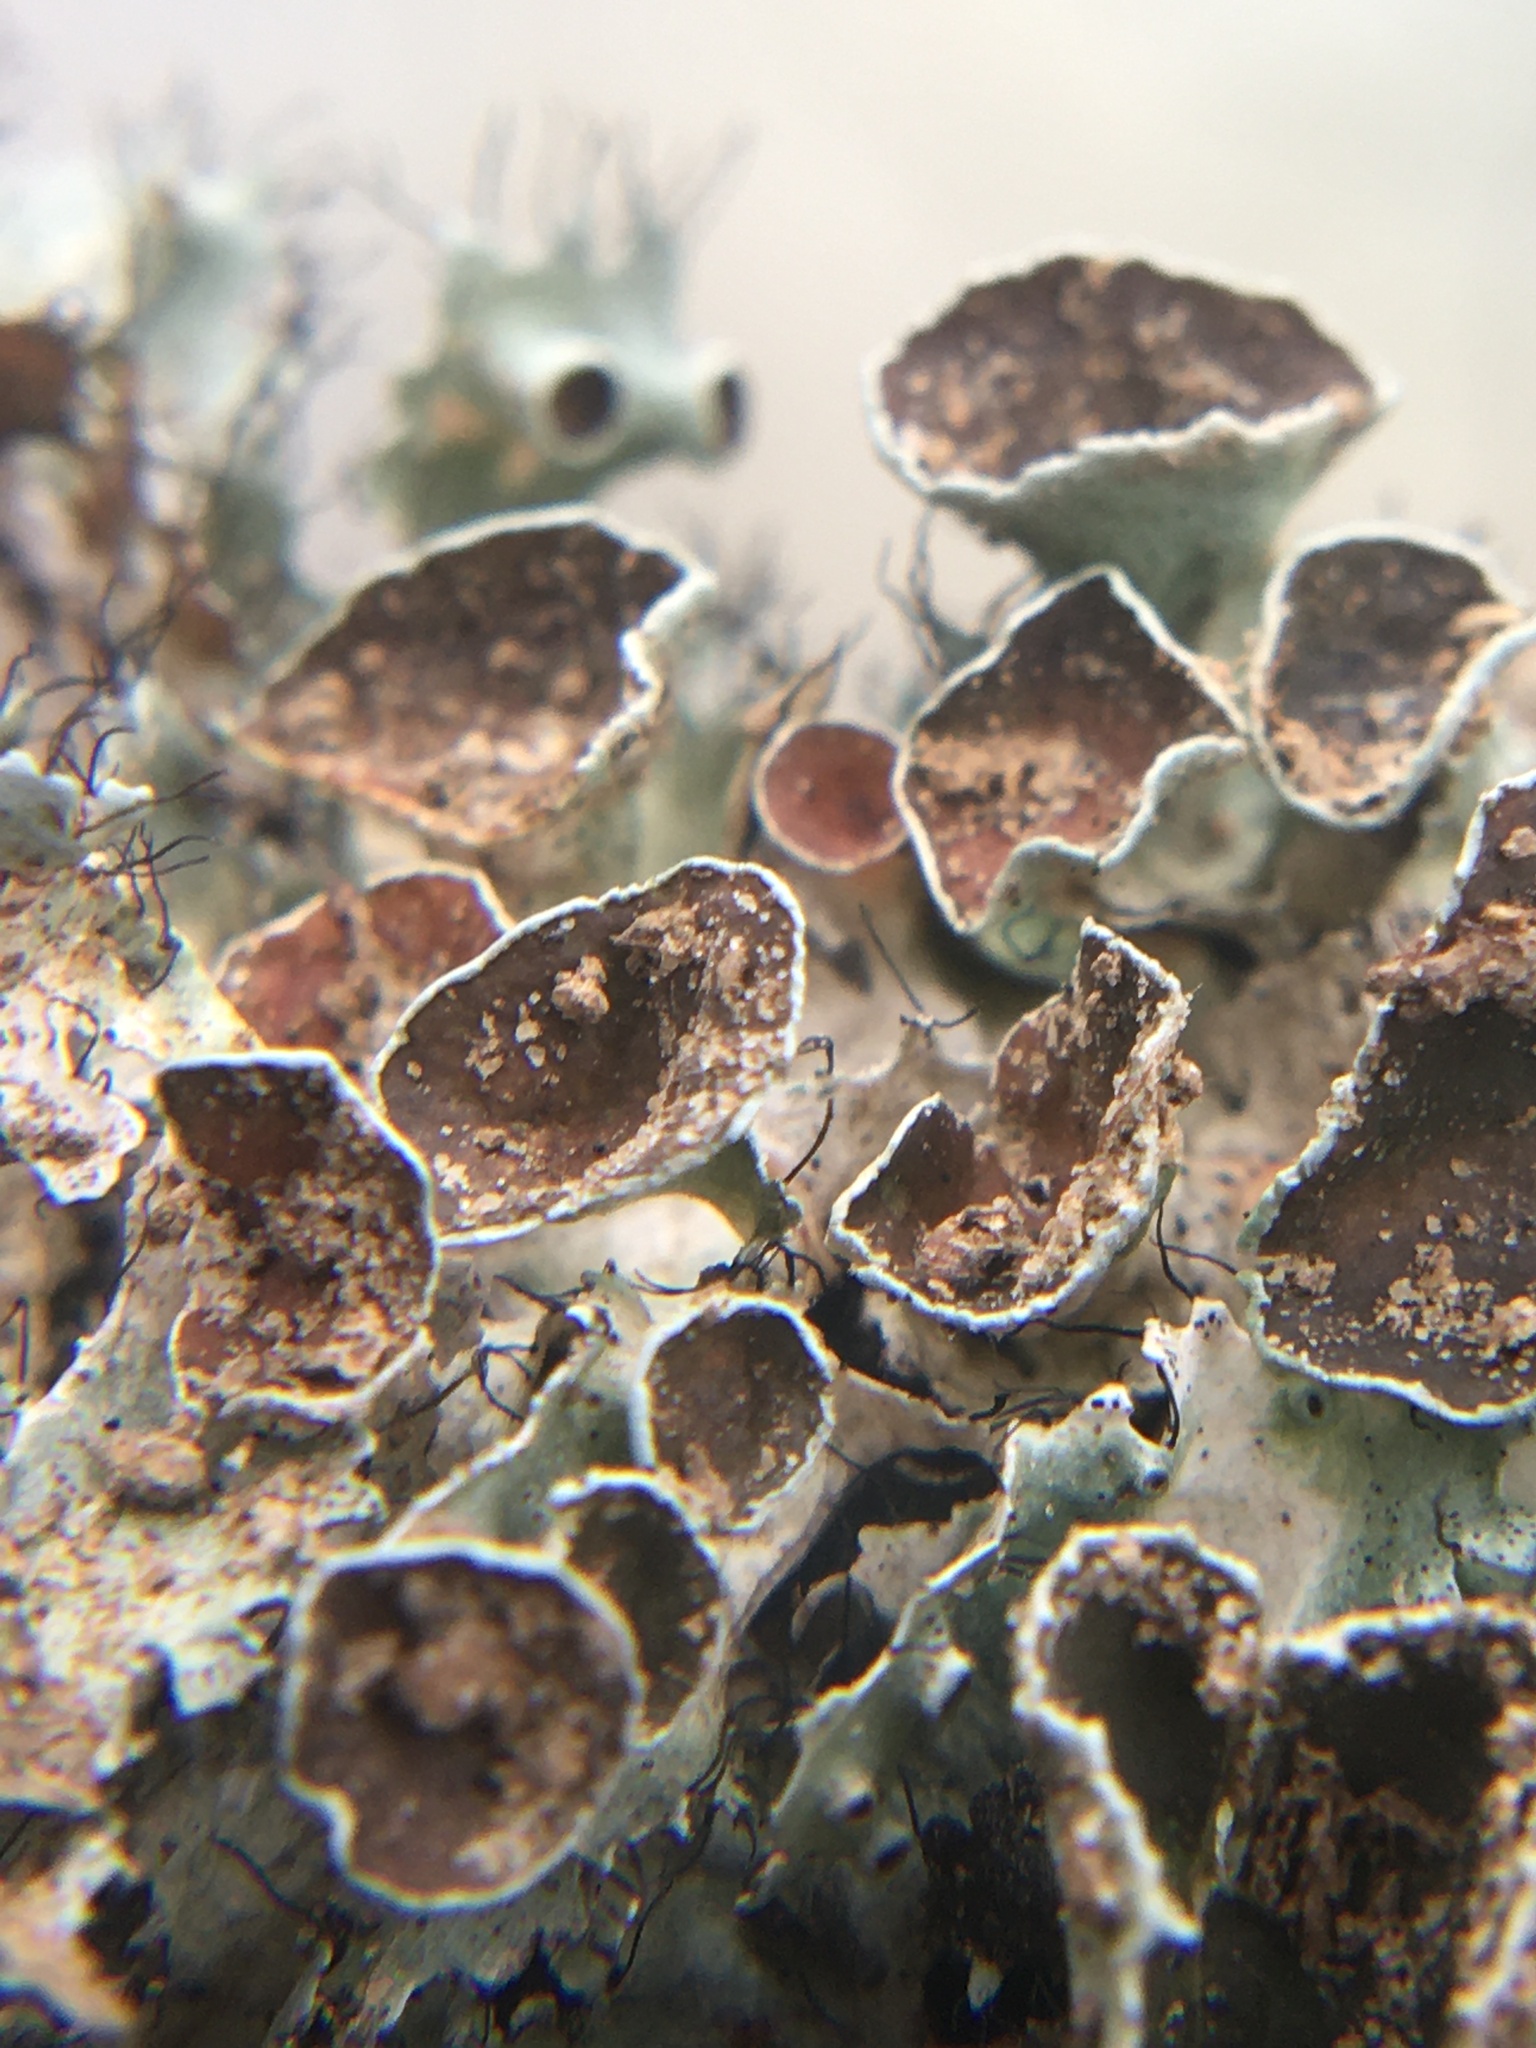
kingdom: Fungi
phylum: Ascomycota
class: Lecanoromycetes
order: Lecanorales
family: Parmeliaceae
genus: Parmotrema
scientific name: Parmotrema perforatum
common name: Perforated ruffle lichen
